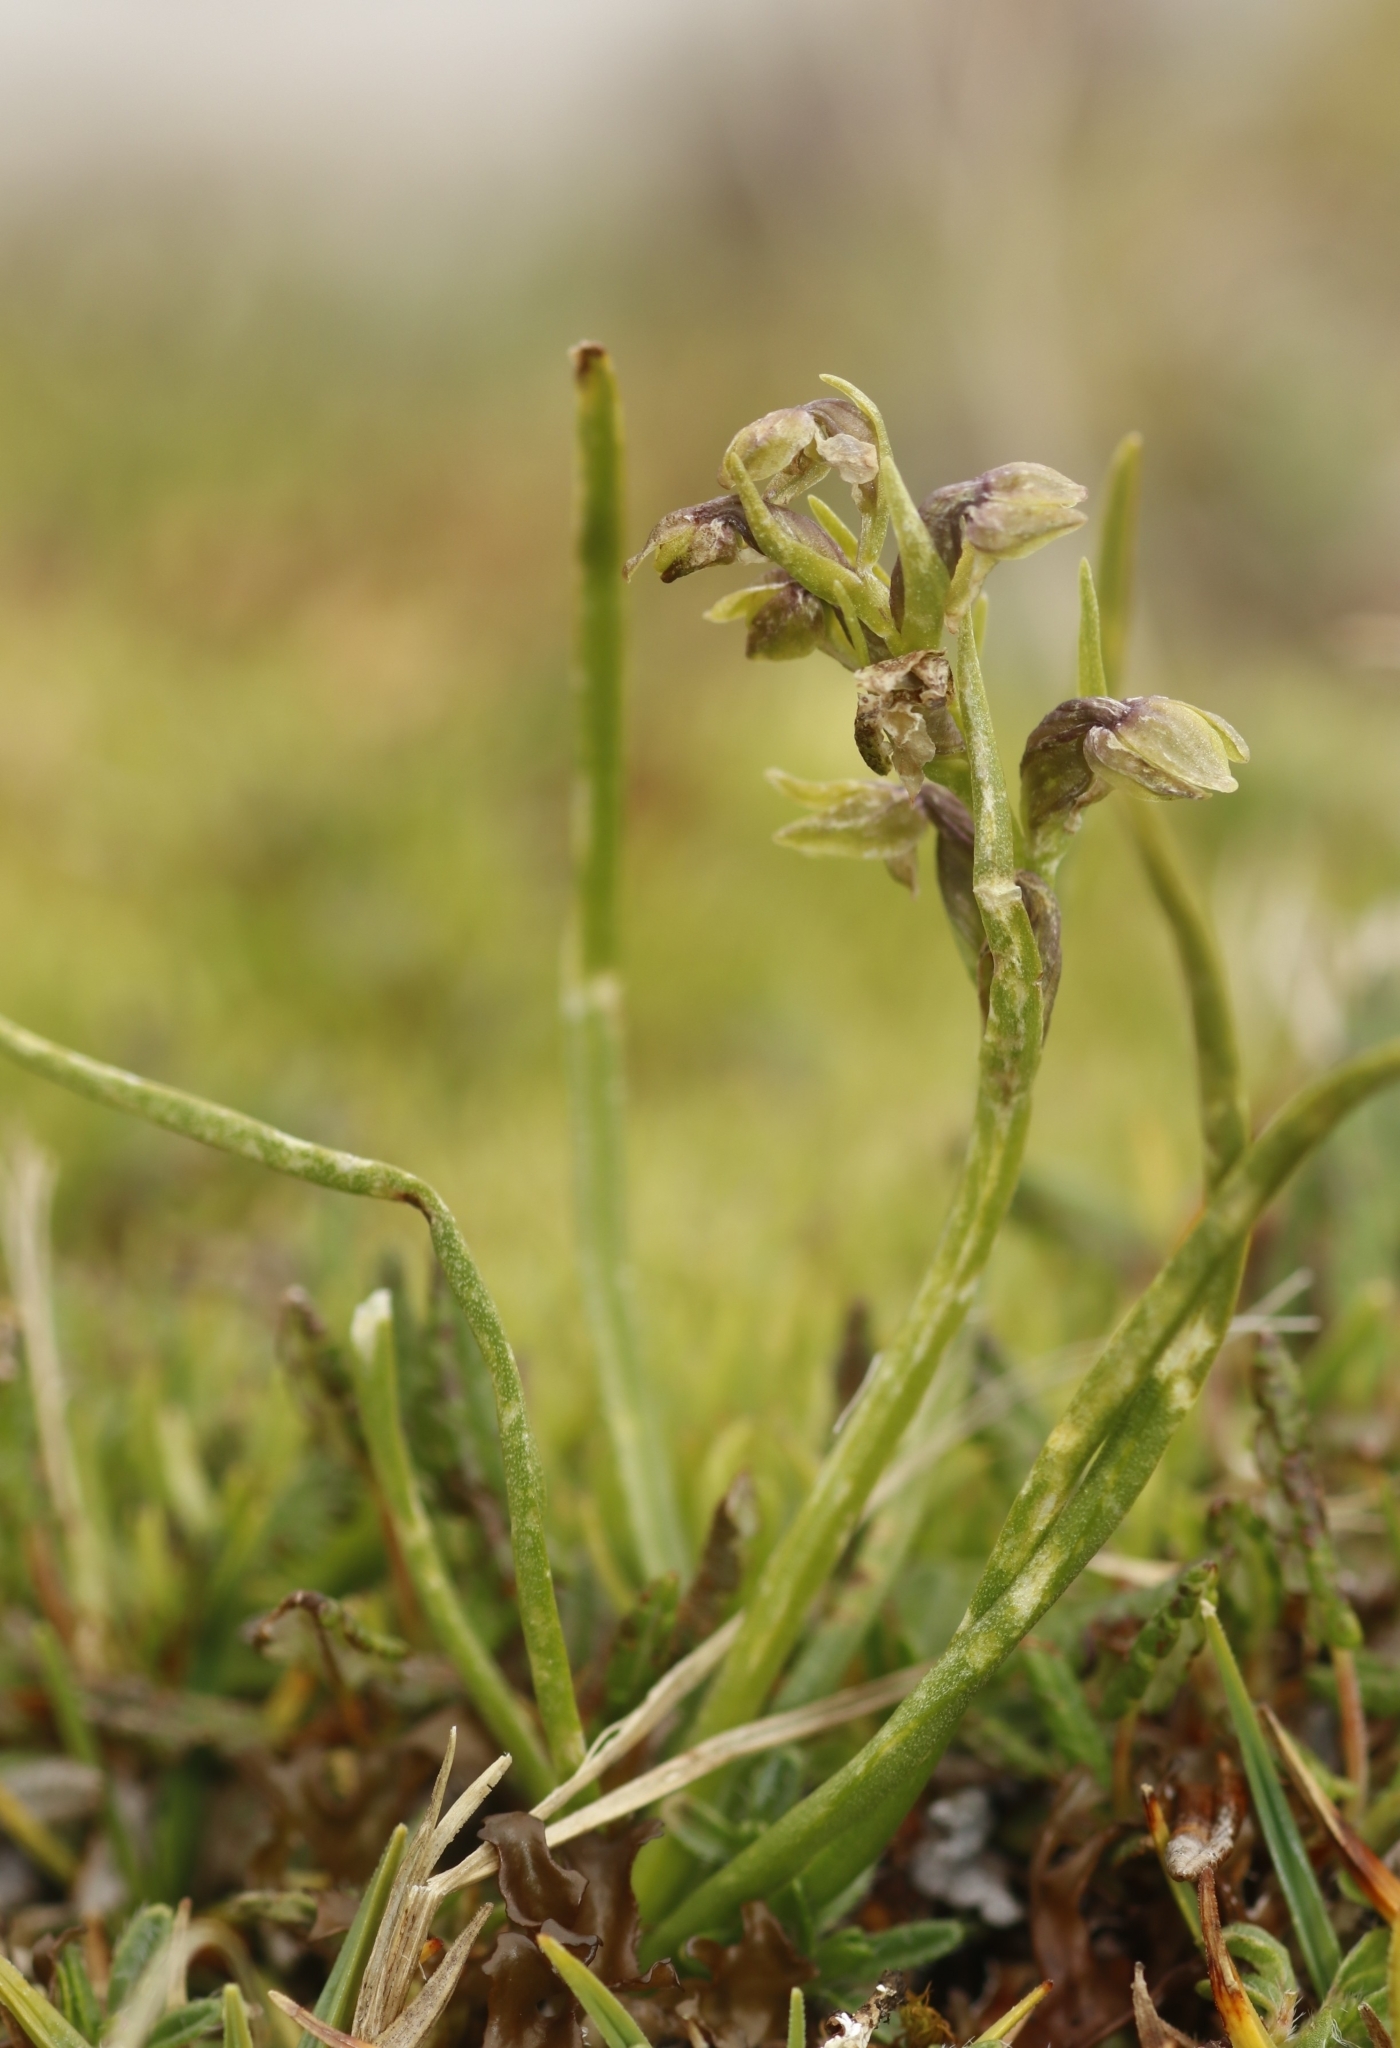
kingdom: Plantae
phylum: Tracheophyta
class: Liliopsida
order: Asparagales
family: Orchidaceae
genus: Chamorchis
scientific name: Chamorchis alpina
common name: Alpine chamorchis
